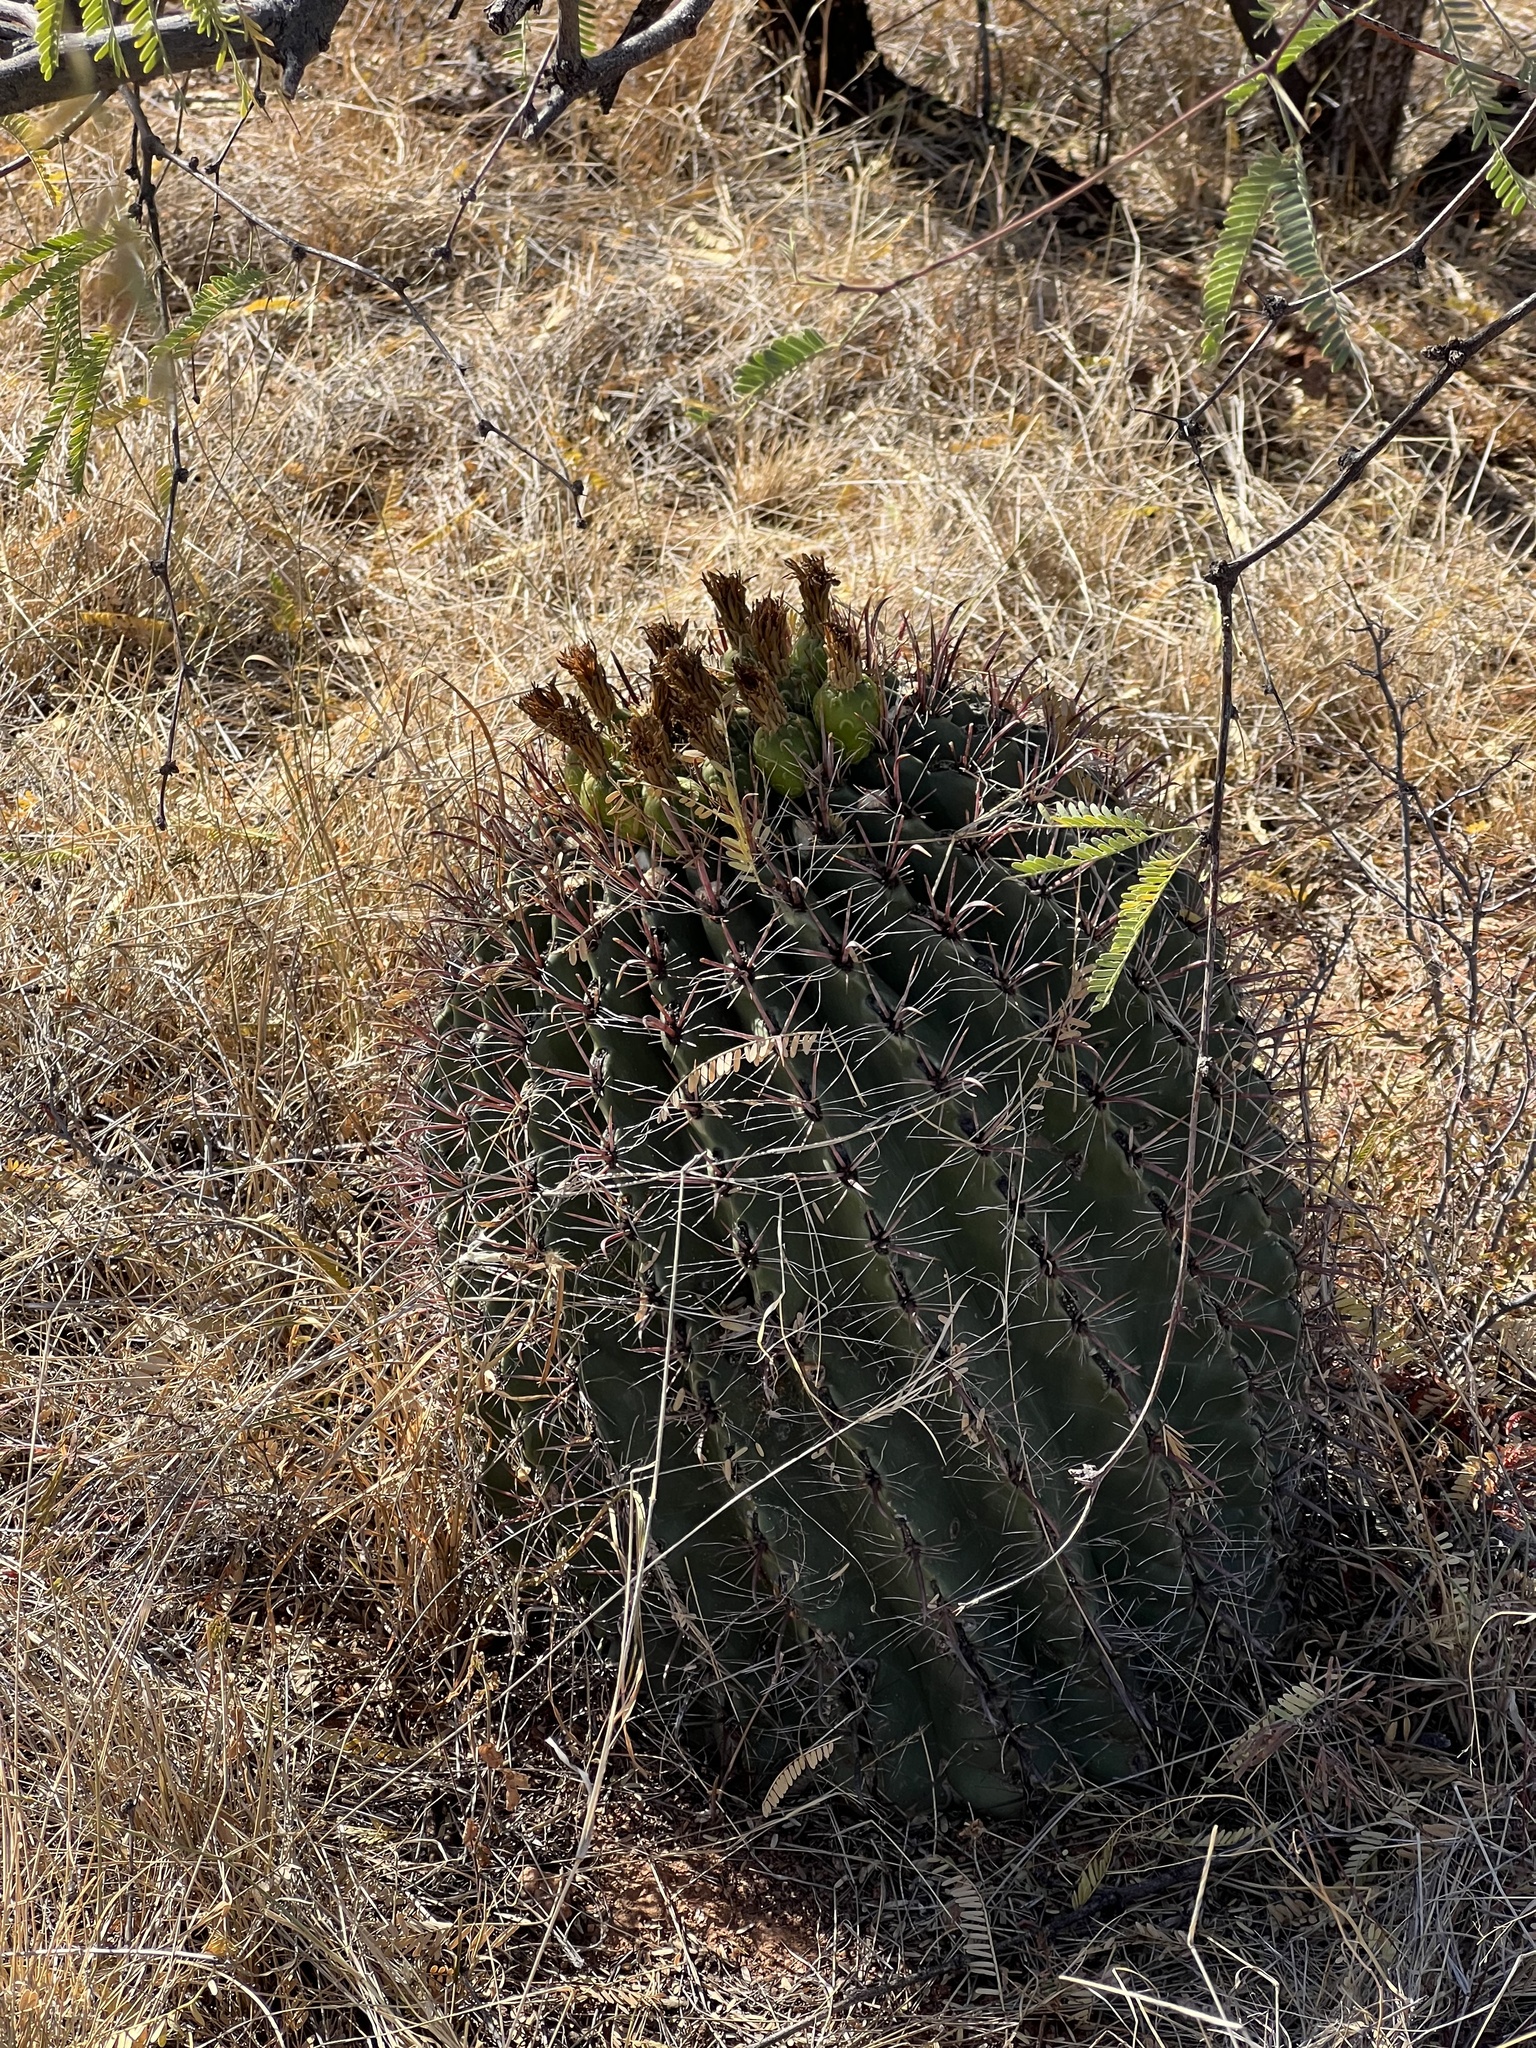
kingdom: Plantae
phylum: Tracheophyta
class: Magnoliopsida
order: Caryophyllales
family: Cactaceae
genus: Ferocactus
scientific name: Ferocactus wislizeni
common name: Candy barrel cactus
